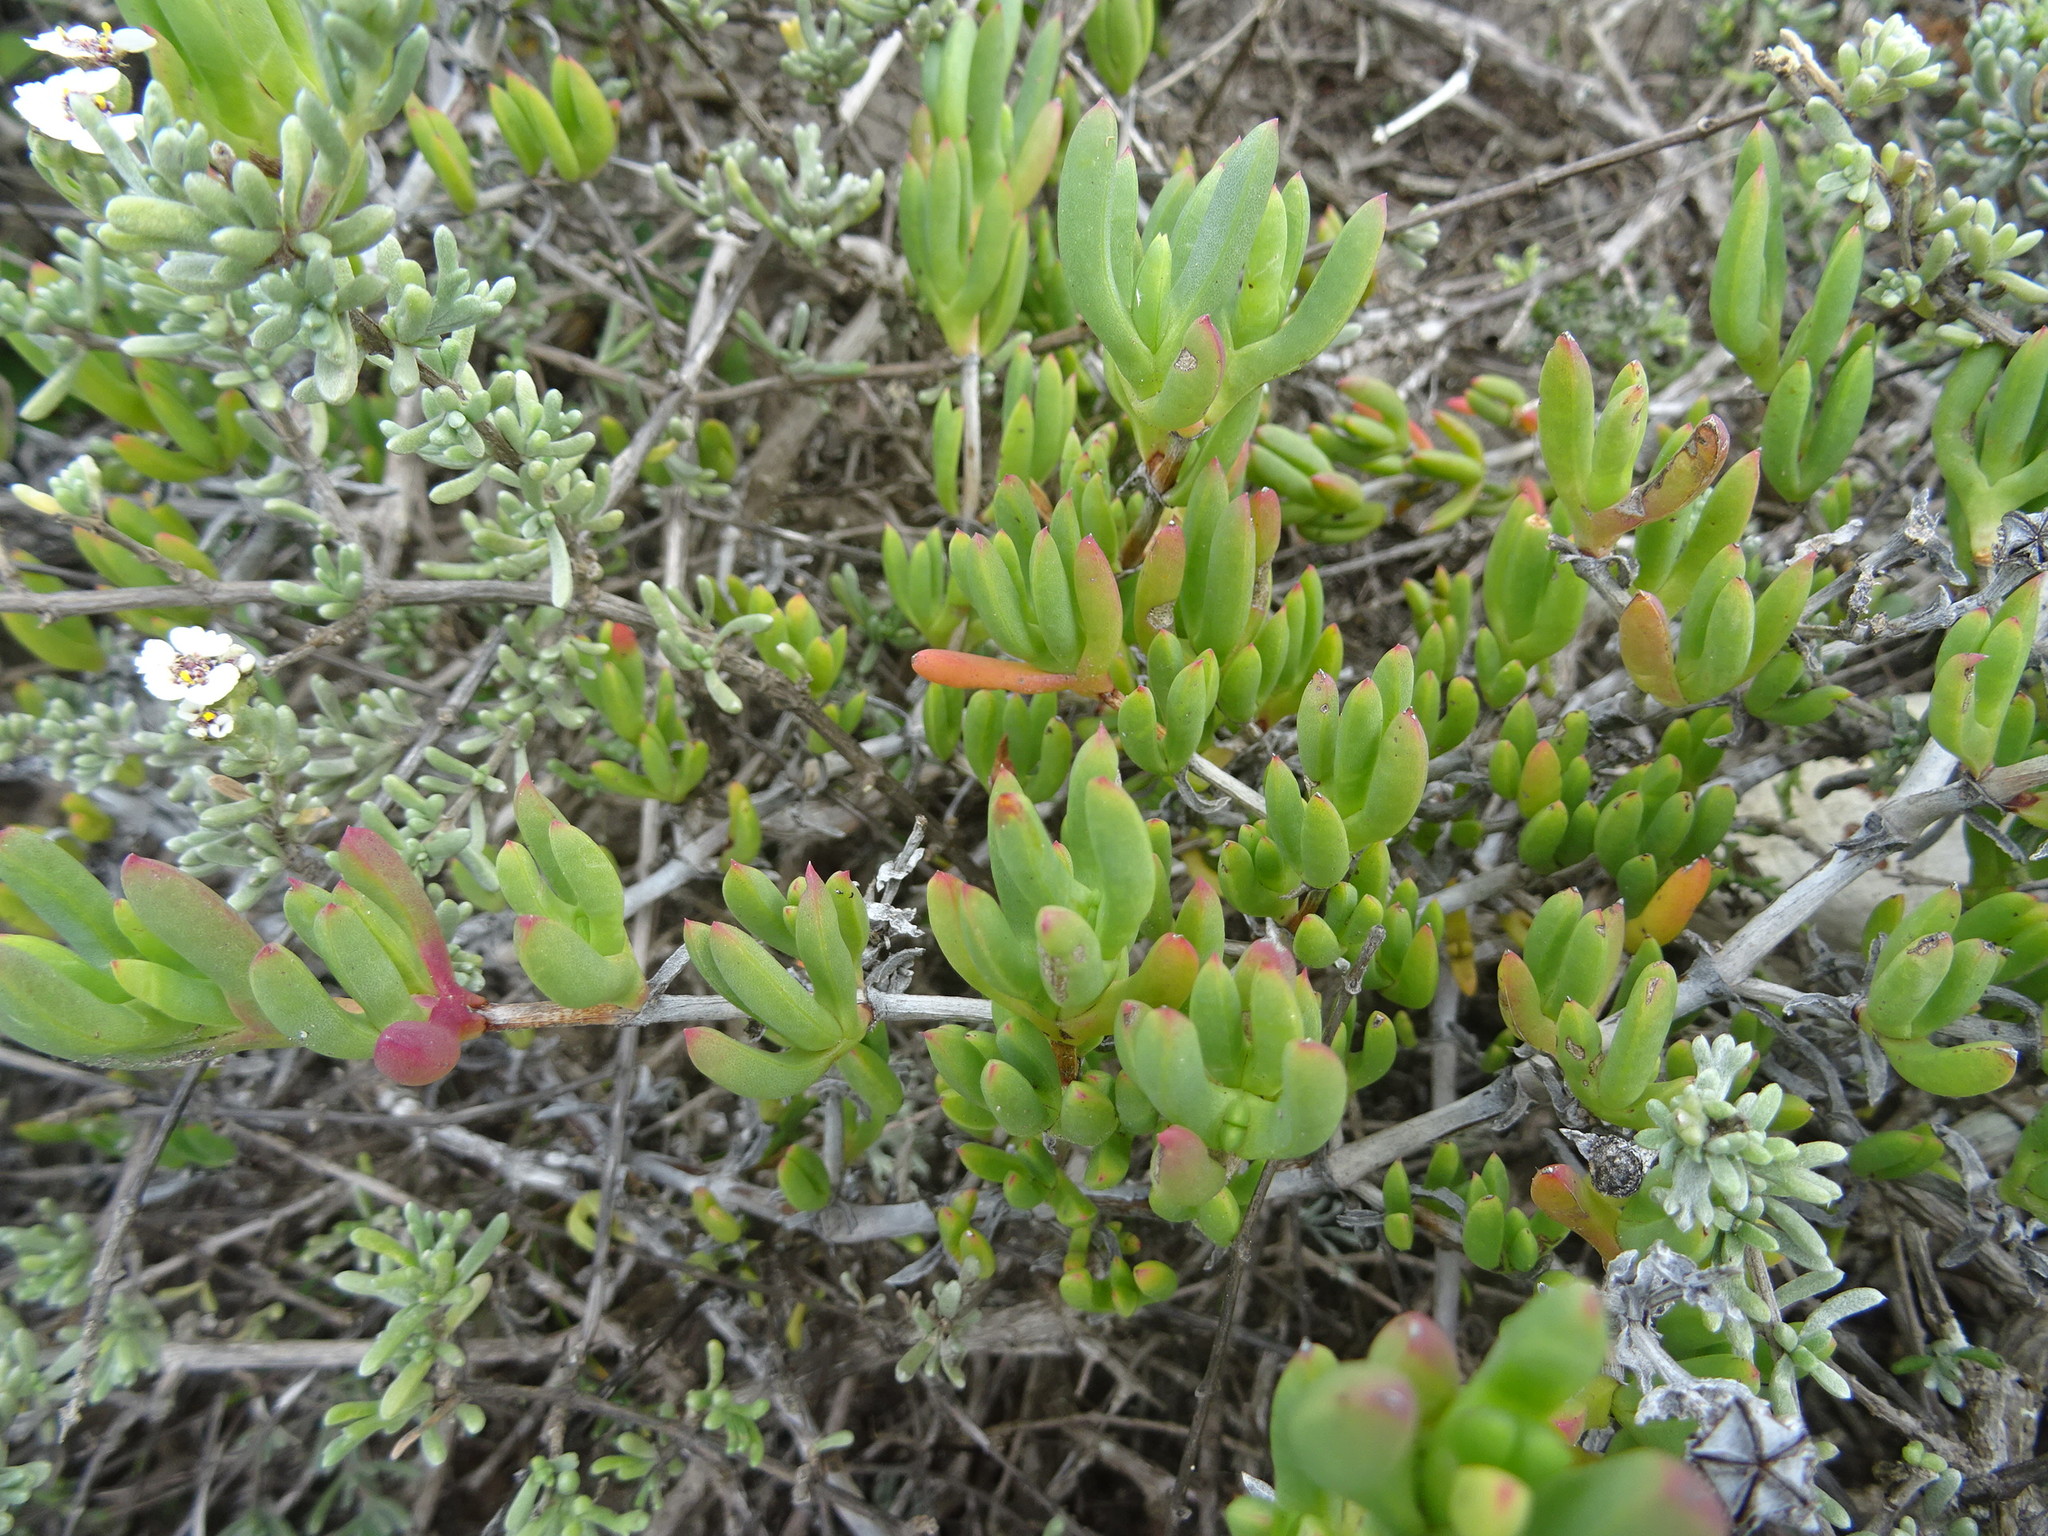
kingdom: Plantae
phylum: Tracheophyta
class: Magnoliopsida
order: Caryophyllales
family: Aizoaceae
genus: Ruschia
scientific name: Ruschia macowanii
